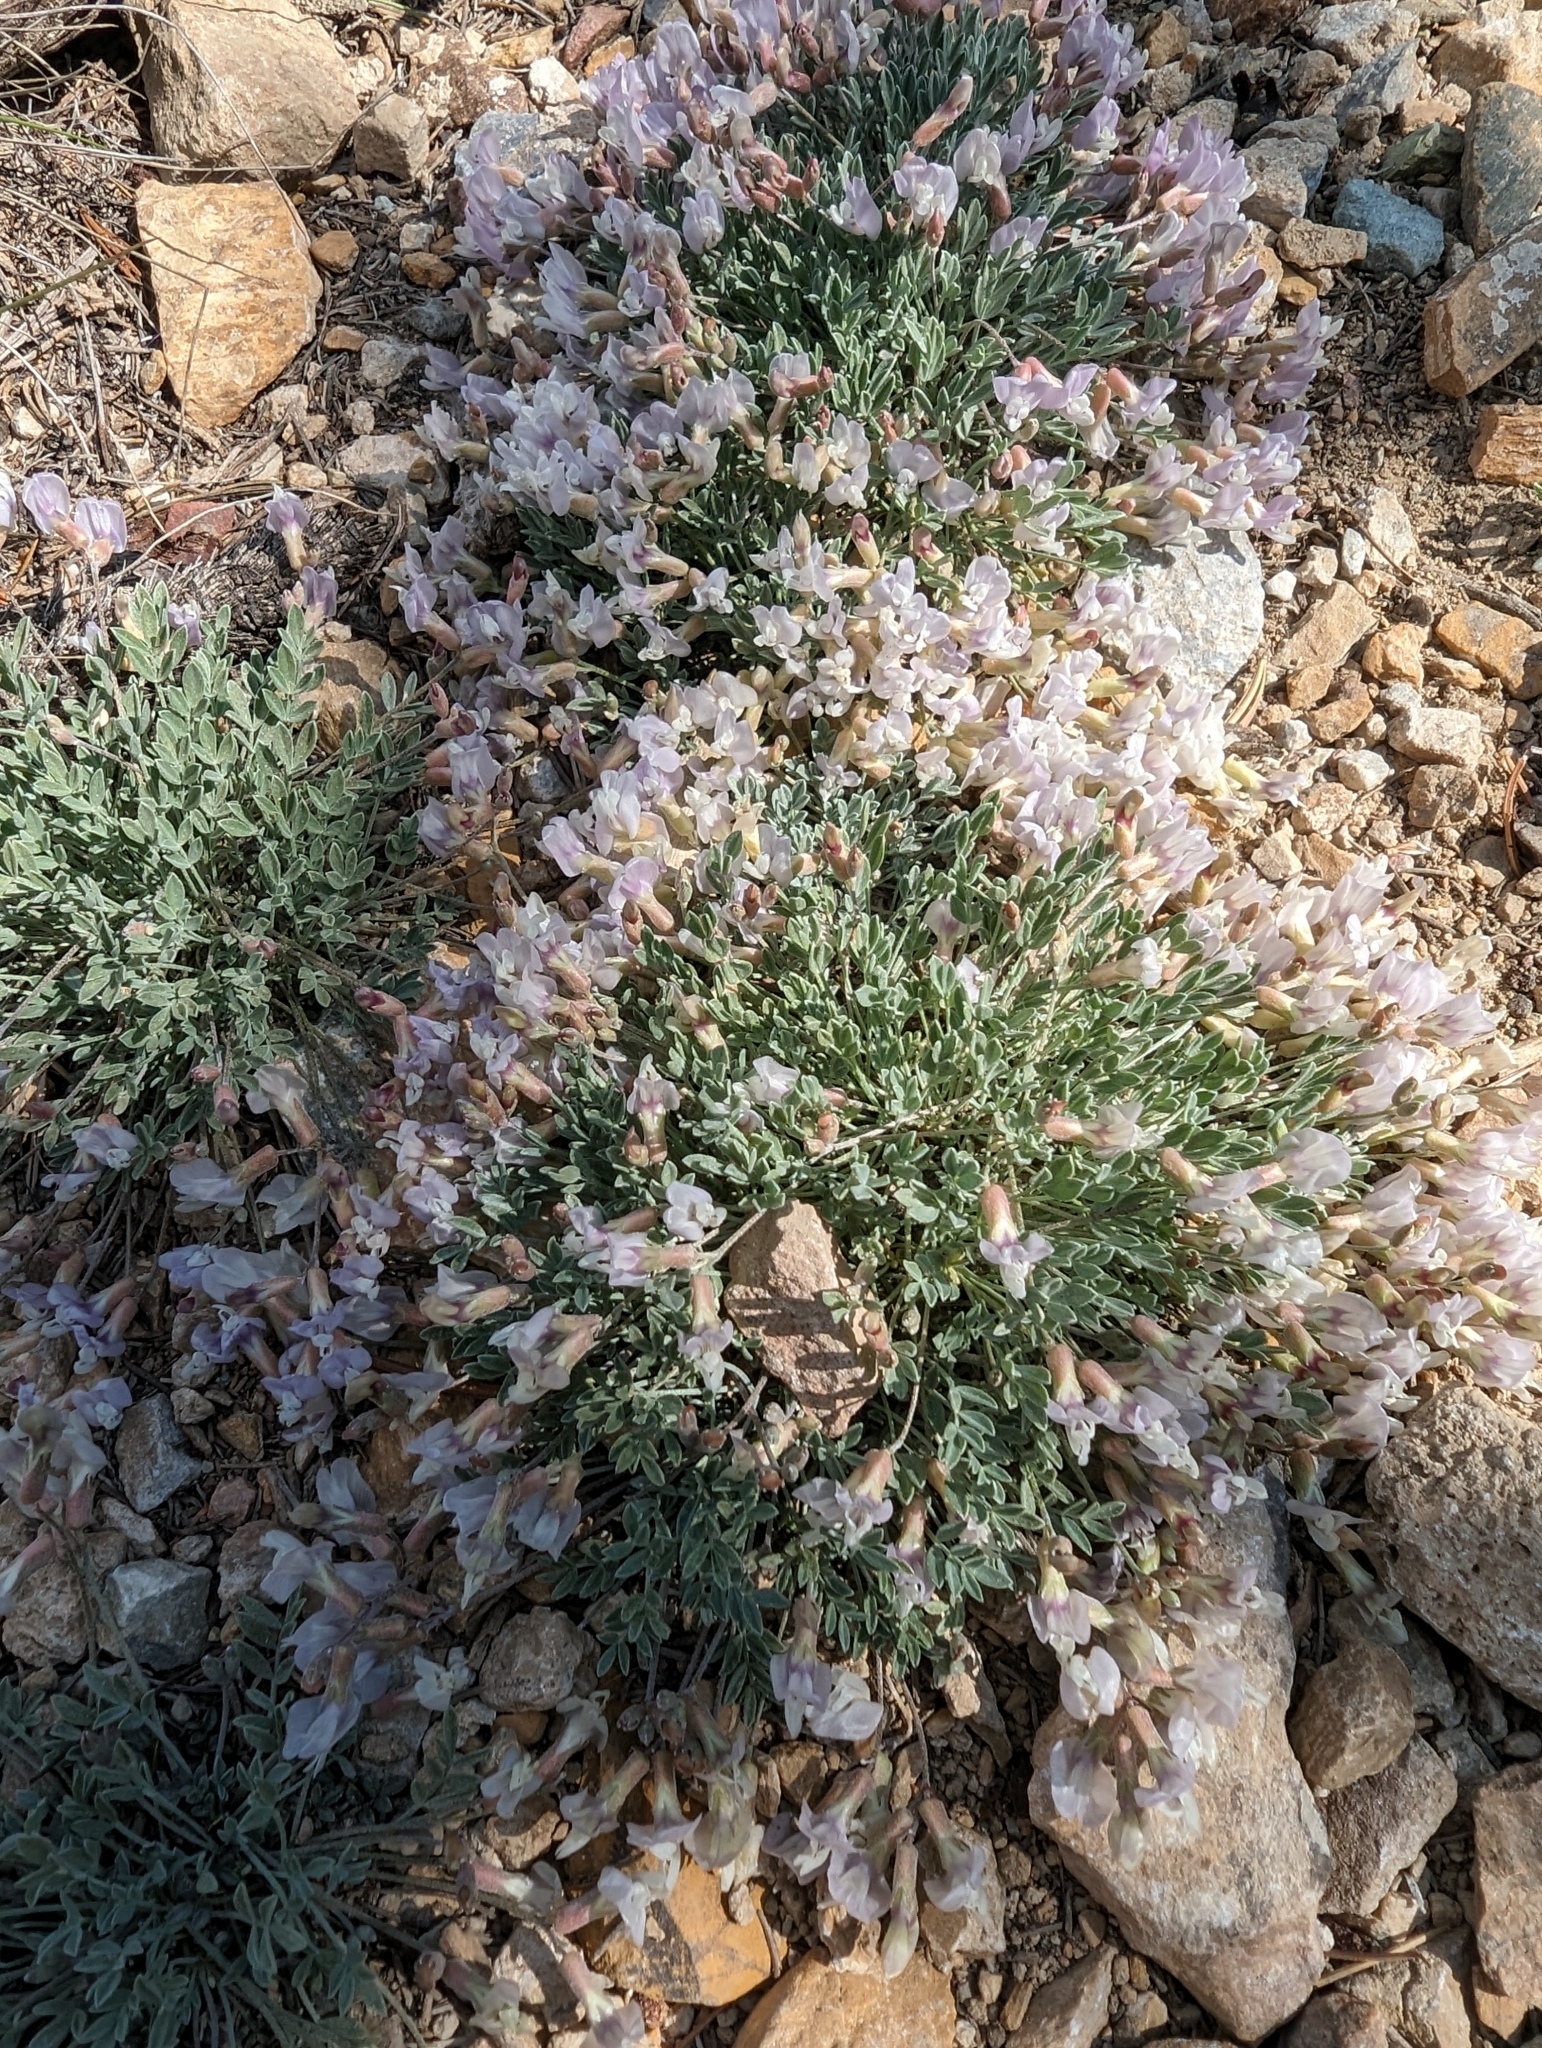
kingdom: Plantae
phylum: Tracheophyta
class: Magnoliopsida
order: Fabales
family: Fabaceae
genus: Astragalus
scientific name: Astragalus calycosus
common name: King's milkvetch
